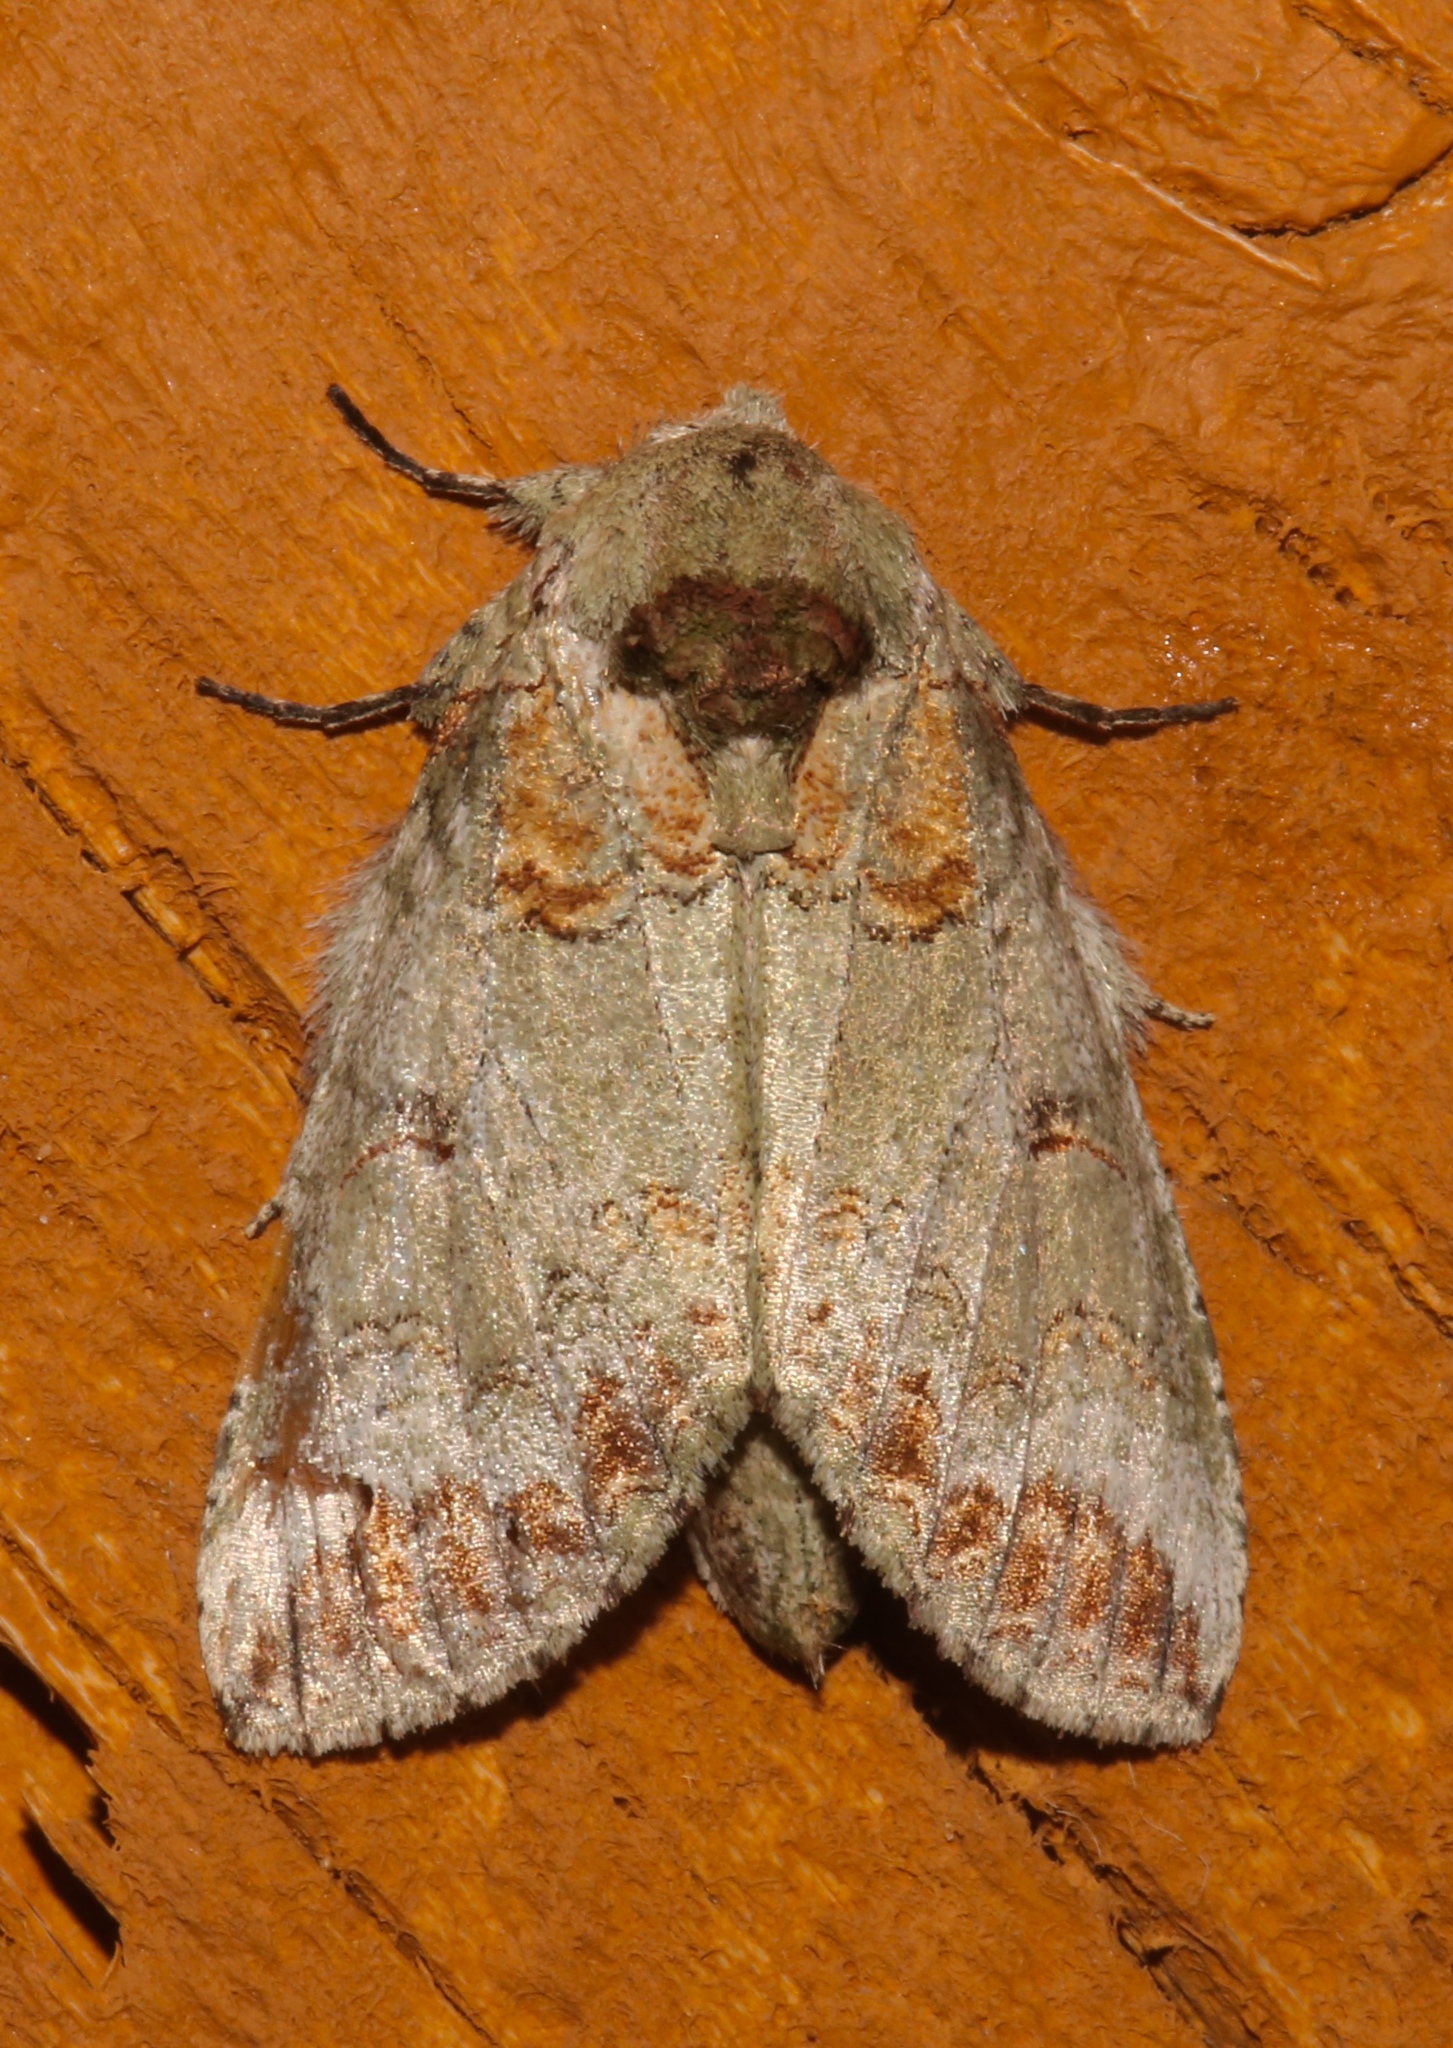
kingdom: Animalia
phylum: Arthropoda
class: Insecta
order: Lepidoptera
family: Notodontidae
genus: Heterocampa
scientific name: Heterocampa astarte
